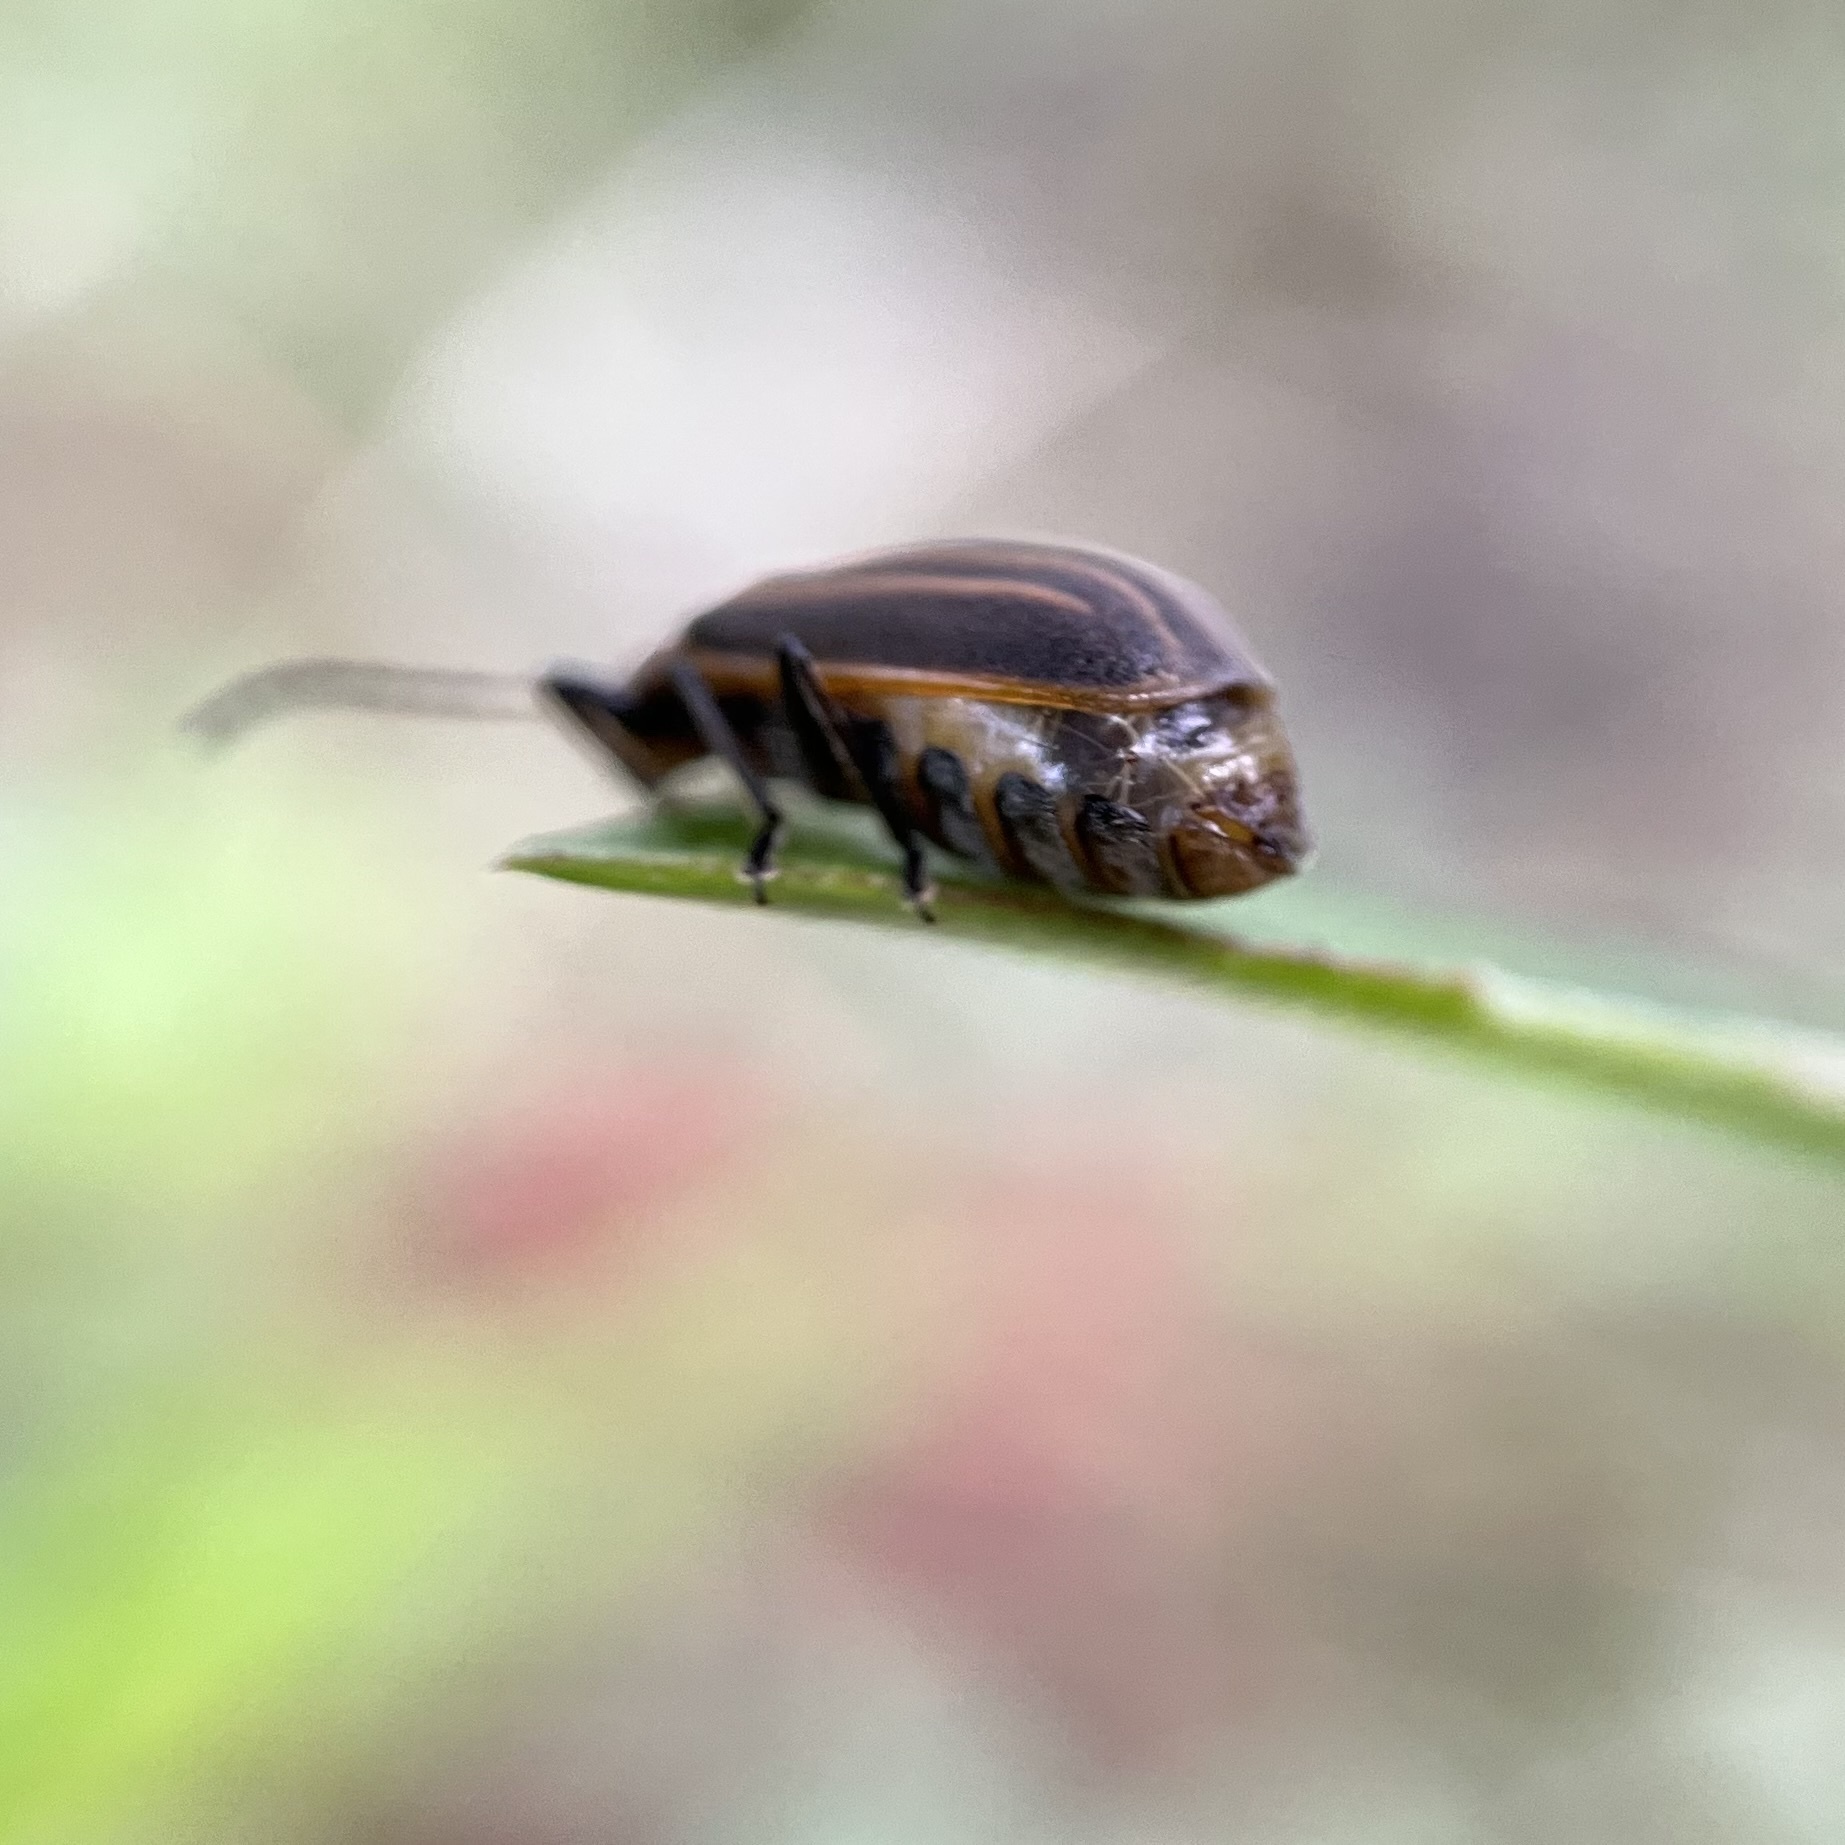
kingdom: Animalia
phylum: Arthropoda
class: Insecta
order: Coleoptera
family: Chrysomelidae
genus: Neolochmaea
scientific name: Neolochmaea dilatipennis
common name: Skeletonizing leaf beetle
